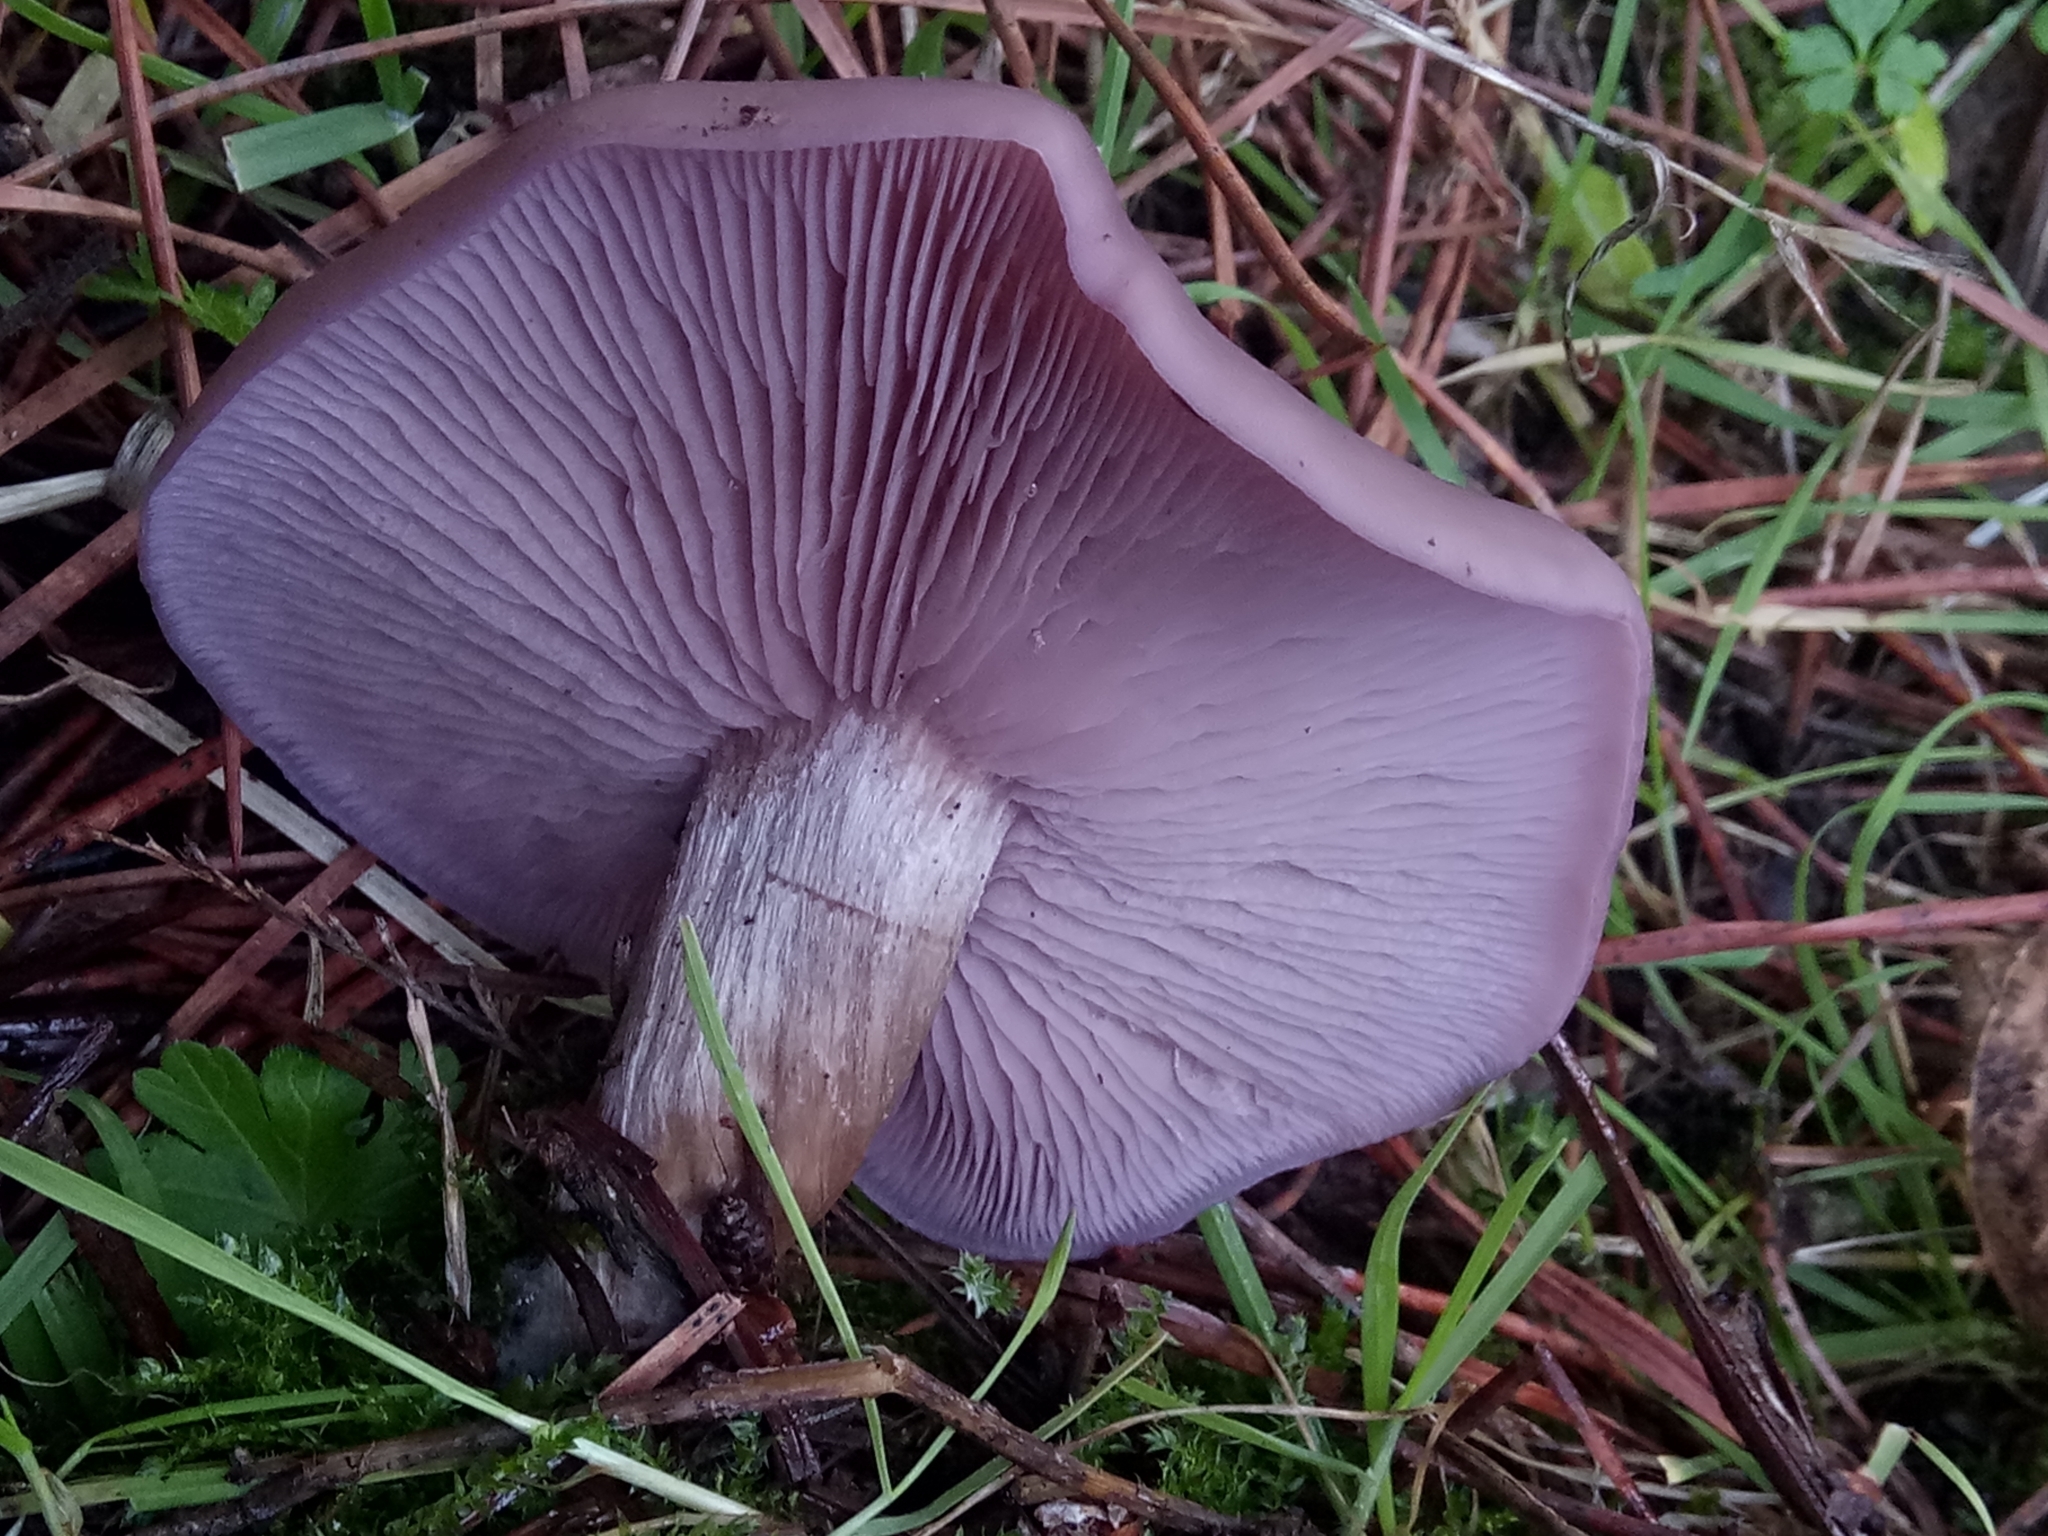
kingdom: Fungi
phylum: Basidiomycota
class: Agaricomycetes
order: Agaricales
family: Tricholomataceae
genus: Collybia
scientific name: Collybia
